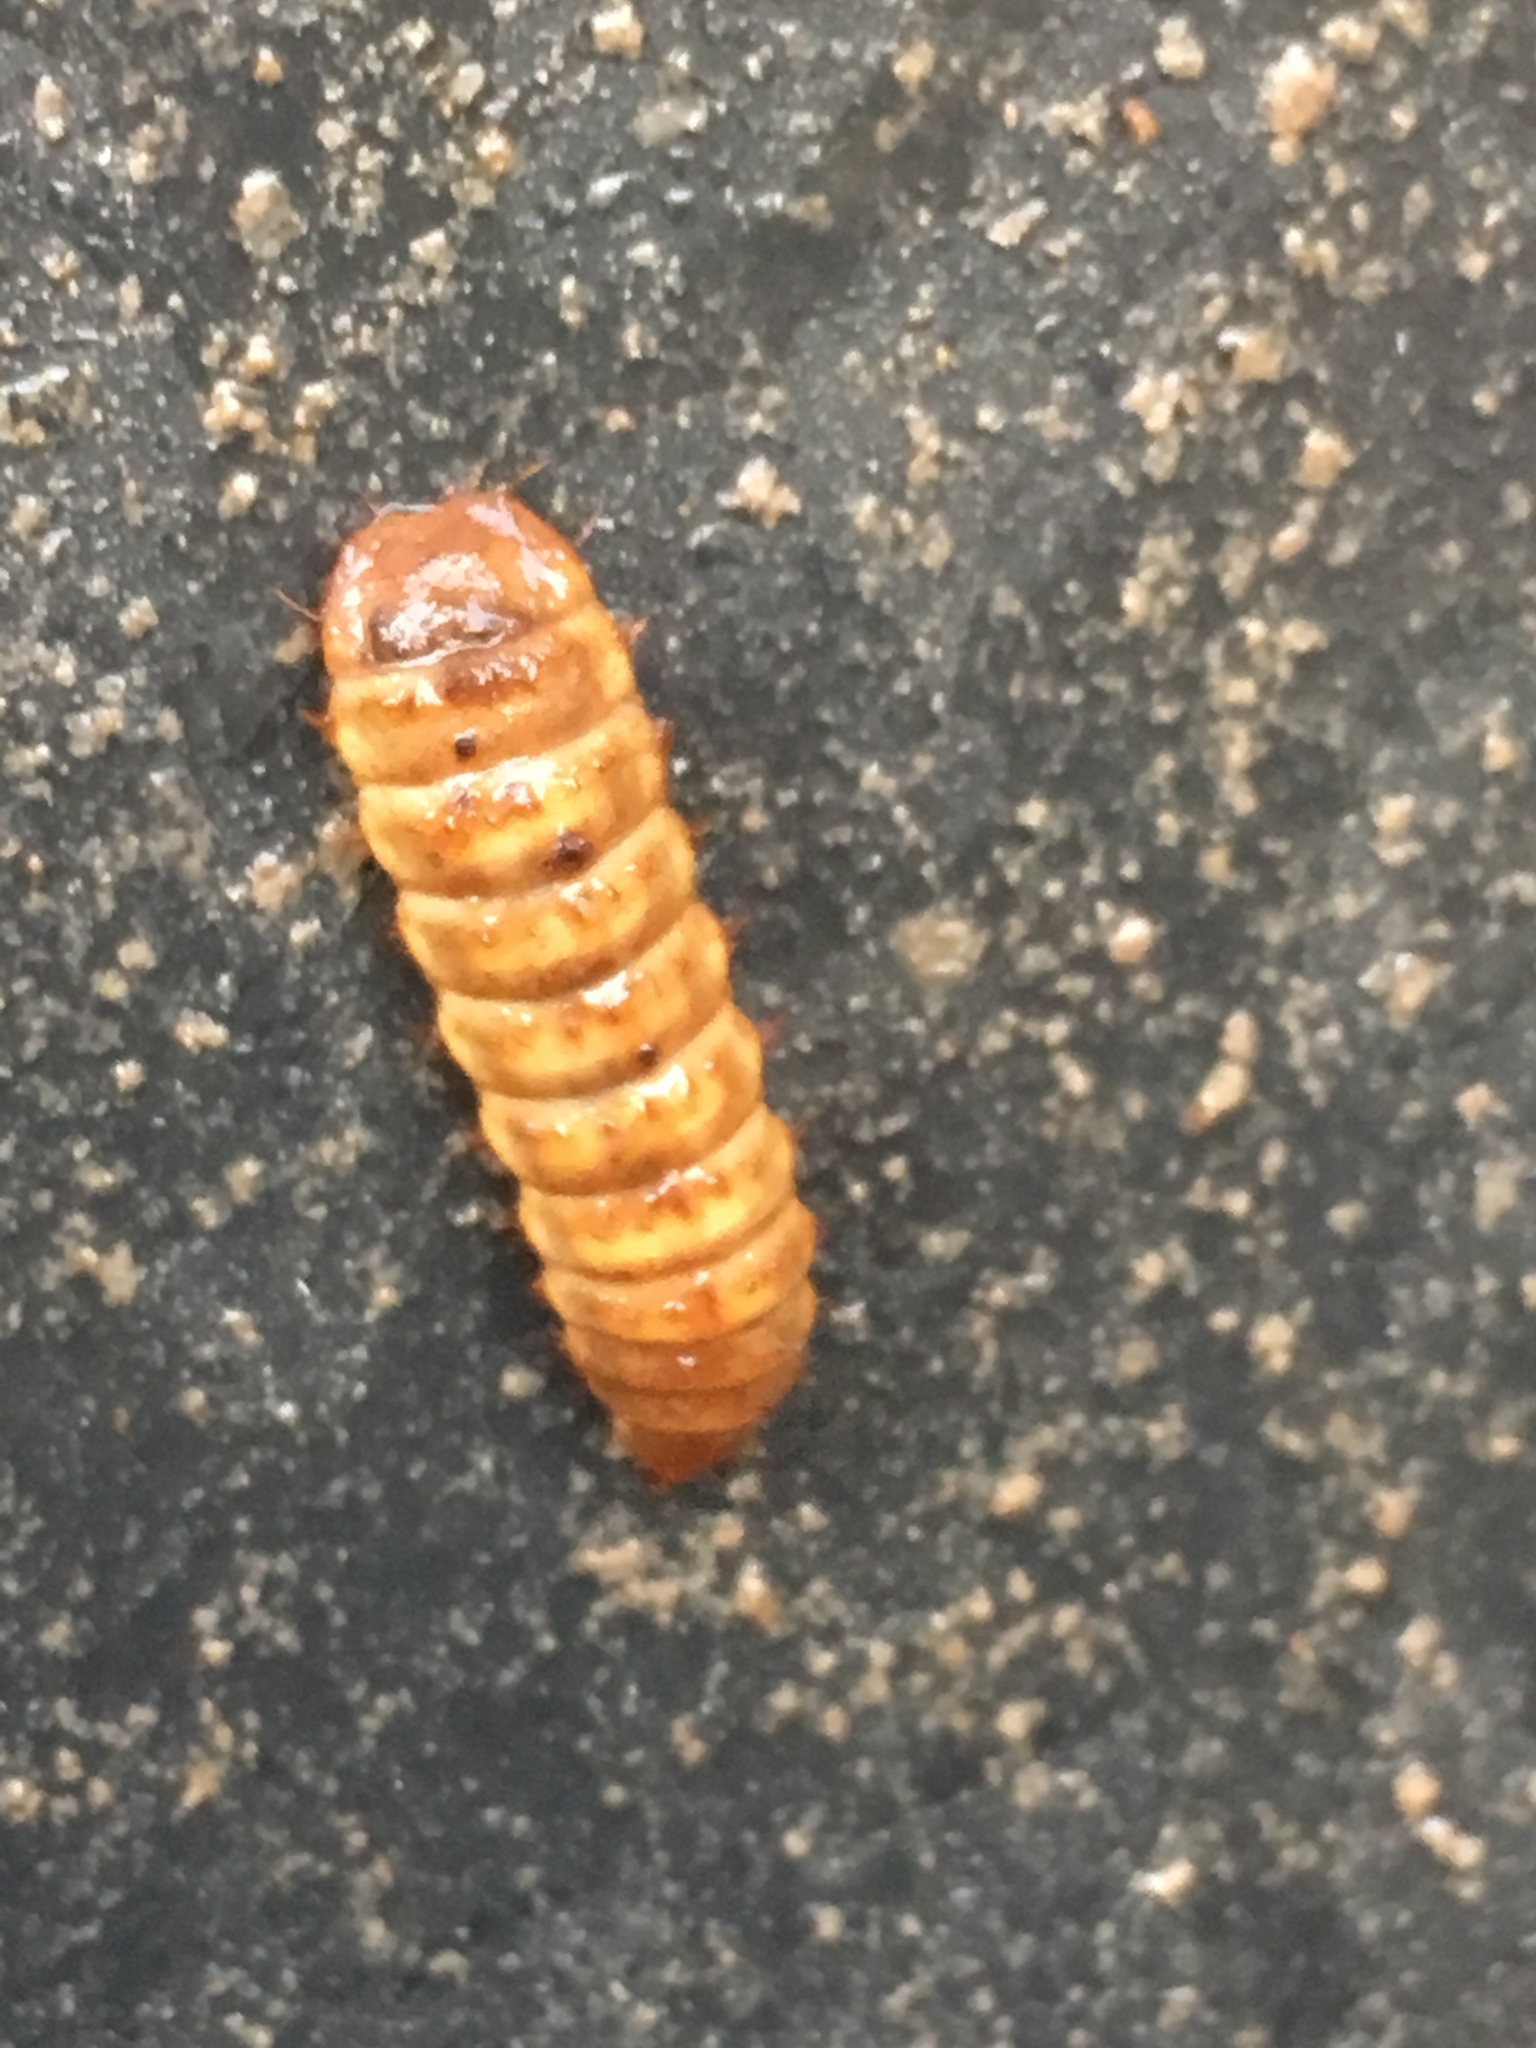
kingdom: Animalia
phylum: Arthropoda
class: Insecta
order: Diptera
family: Stratiomyidae
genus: Hermetia
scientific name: Hermetia illucens
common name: Black soldier fly
